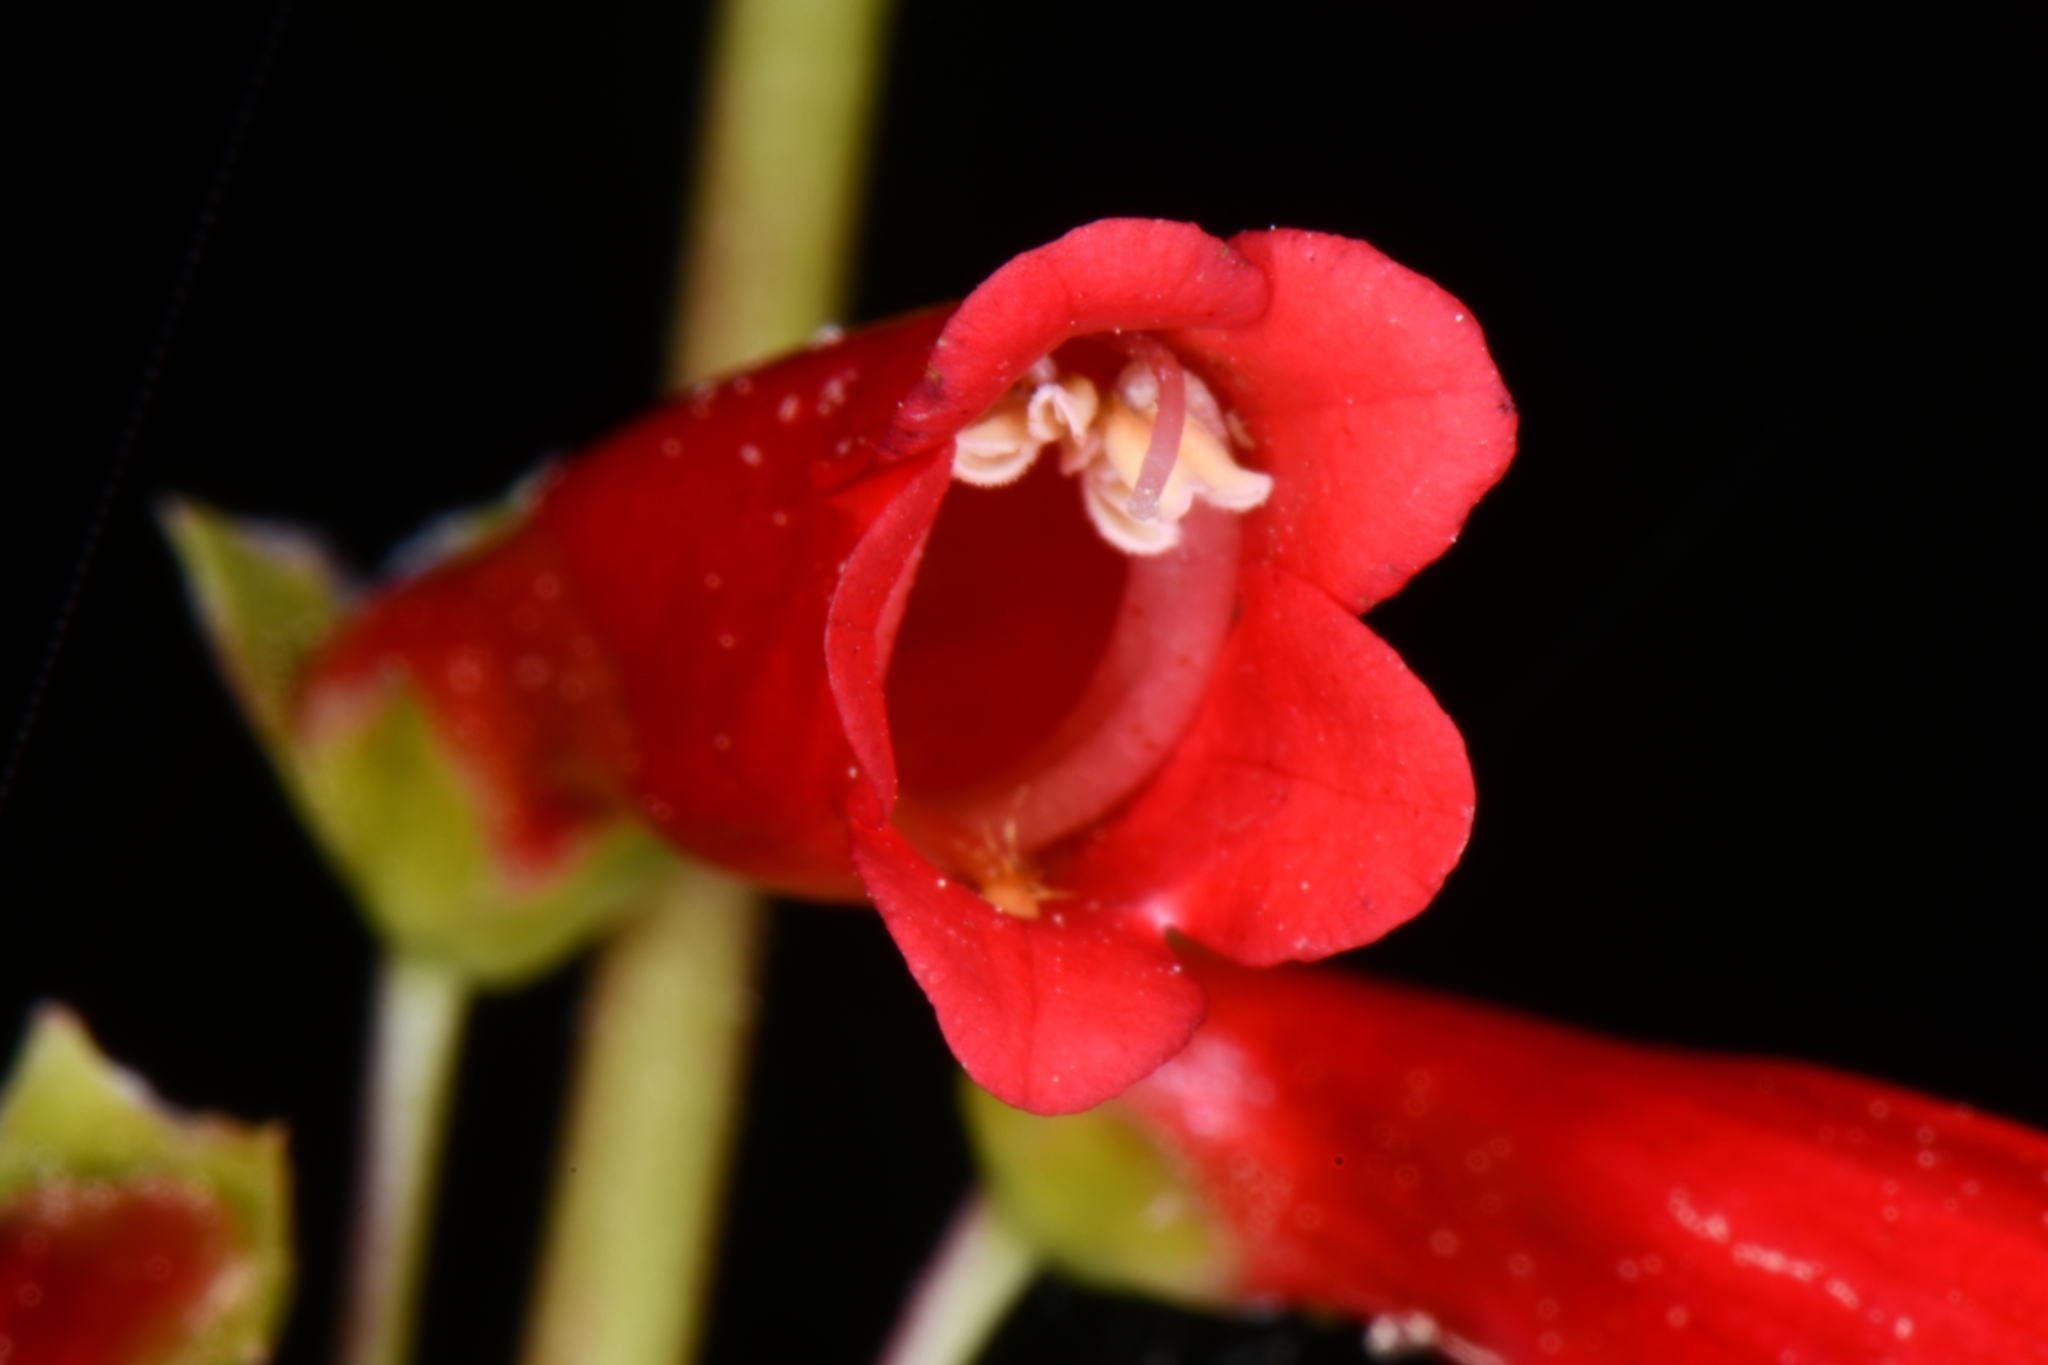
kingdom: Plantae
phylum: Tracheophyta
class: Magnoliopsida
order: Lamiales
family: Plantaginaceae
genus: Penstemon
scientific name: Penstemon eatonii
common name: Eaton's penstemon
